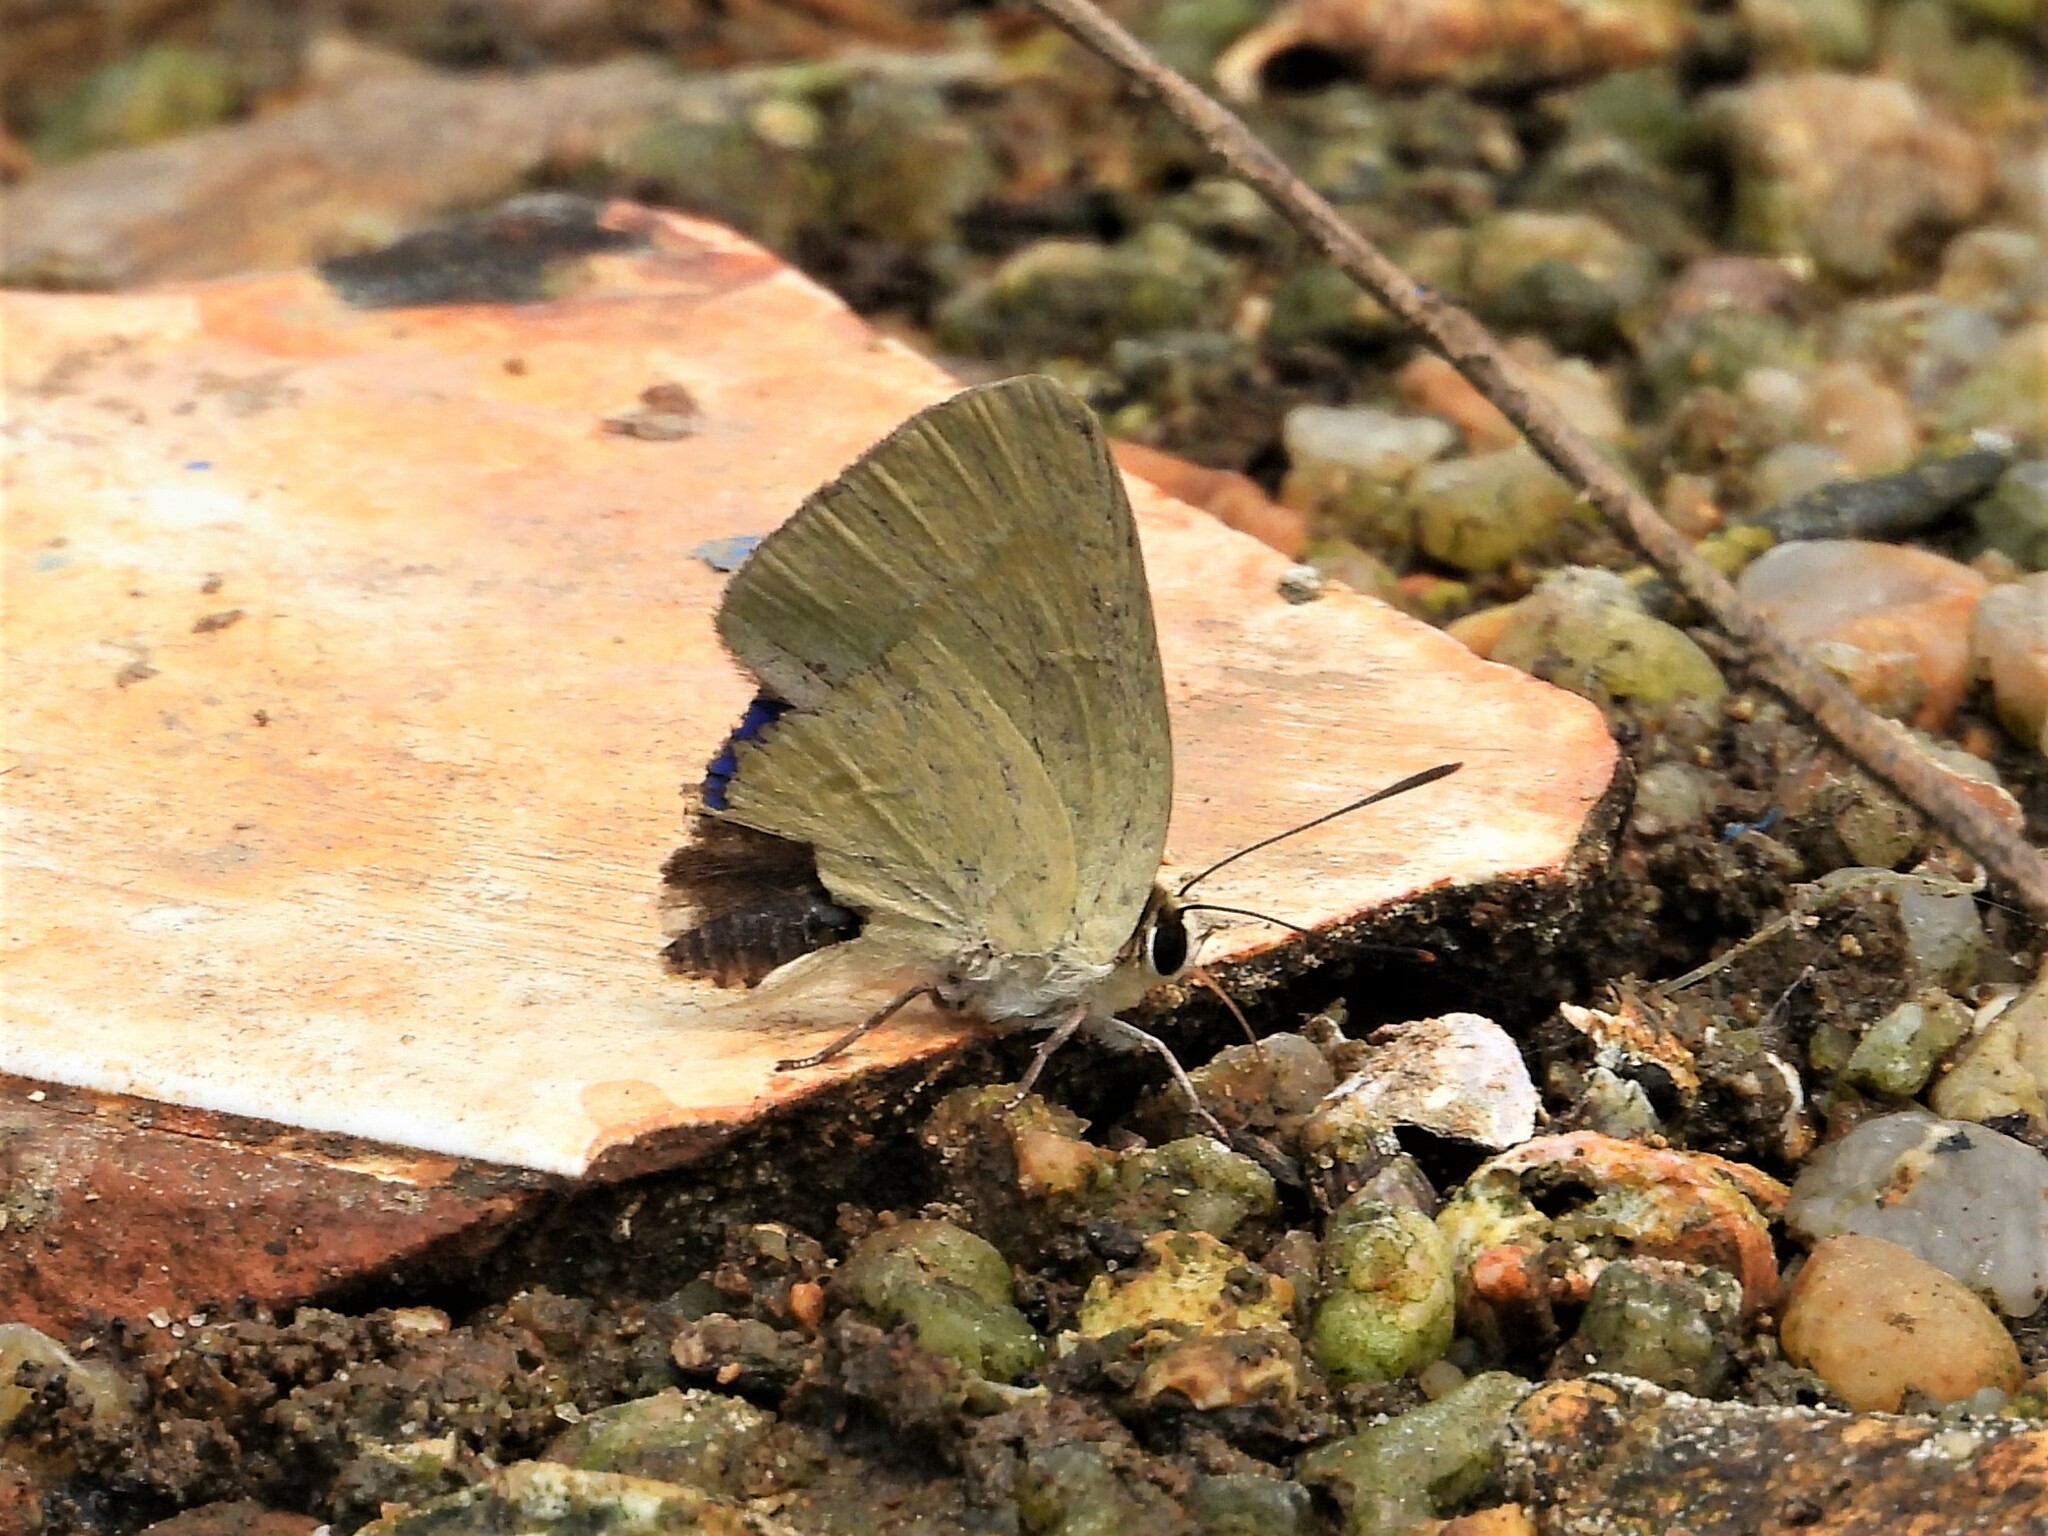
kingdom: Animalia
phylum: Arthropoda
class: Insecta
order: Lepidoptera
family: Lycaenidae
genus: Artipe
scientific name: Artipe eryx
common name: Green flash
